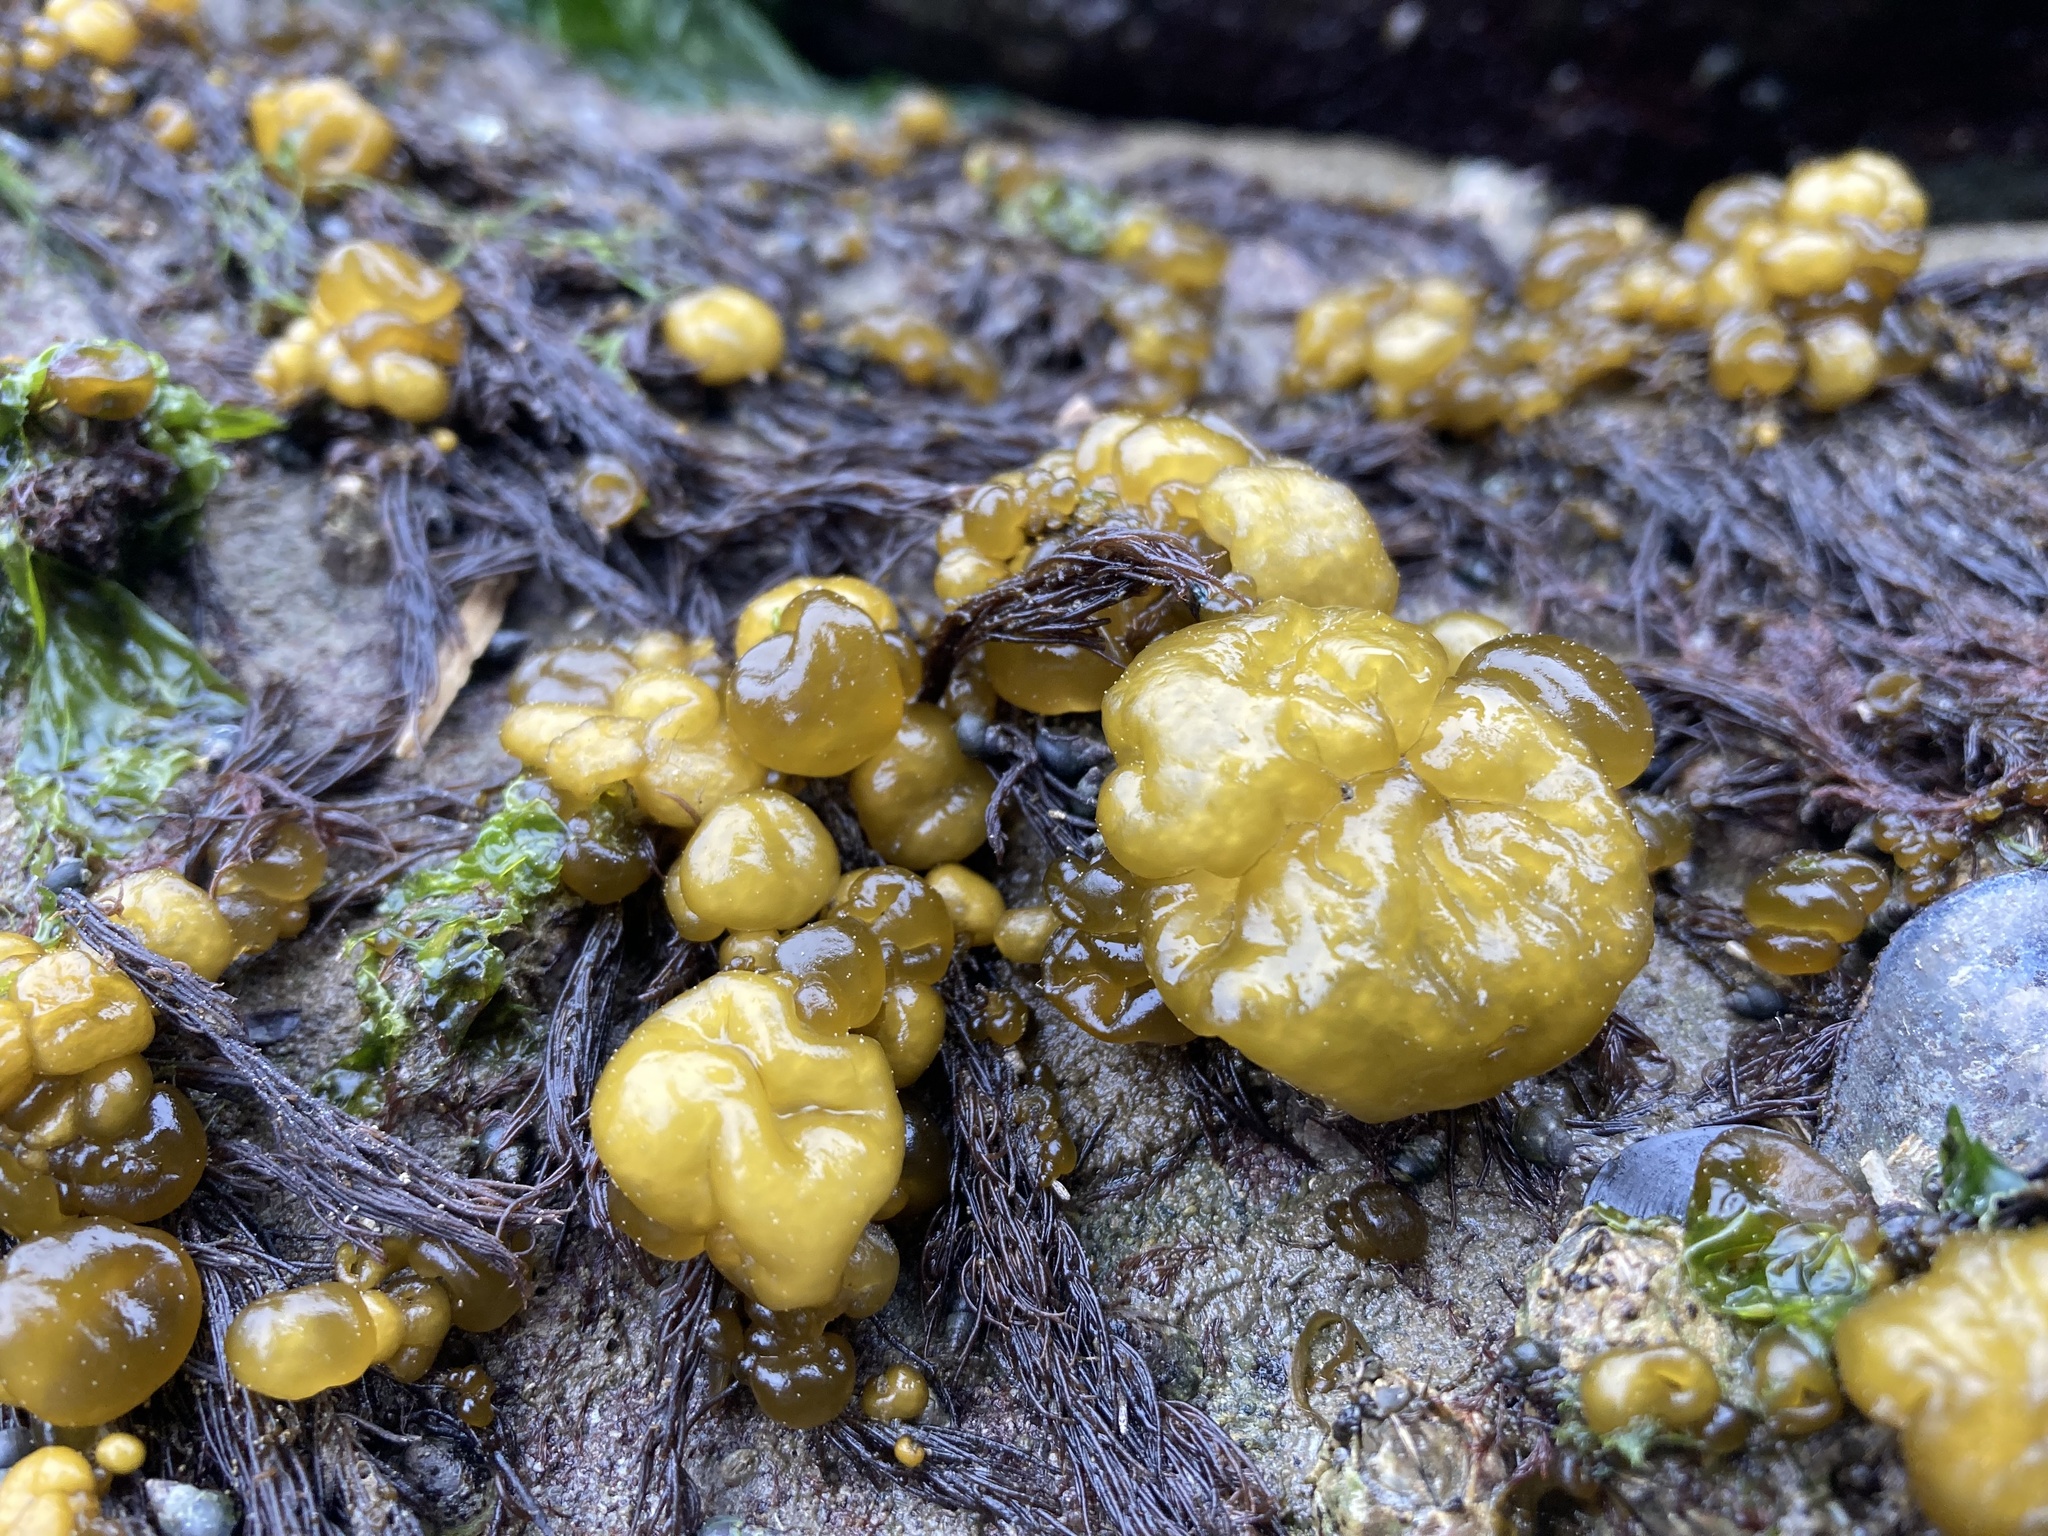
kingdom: Chromista
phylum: Ochrophyta
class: Phaeophyceae
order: Ectocarpales
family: Chordariaceae
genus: Leathesia
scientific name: Leathesia marina
